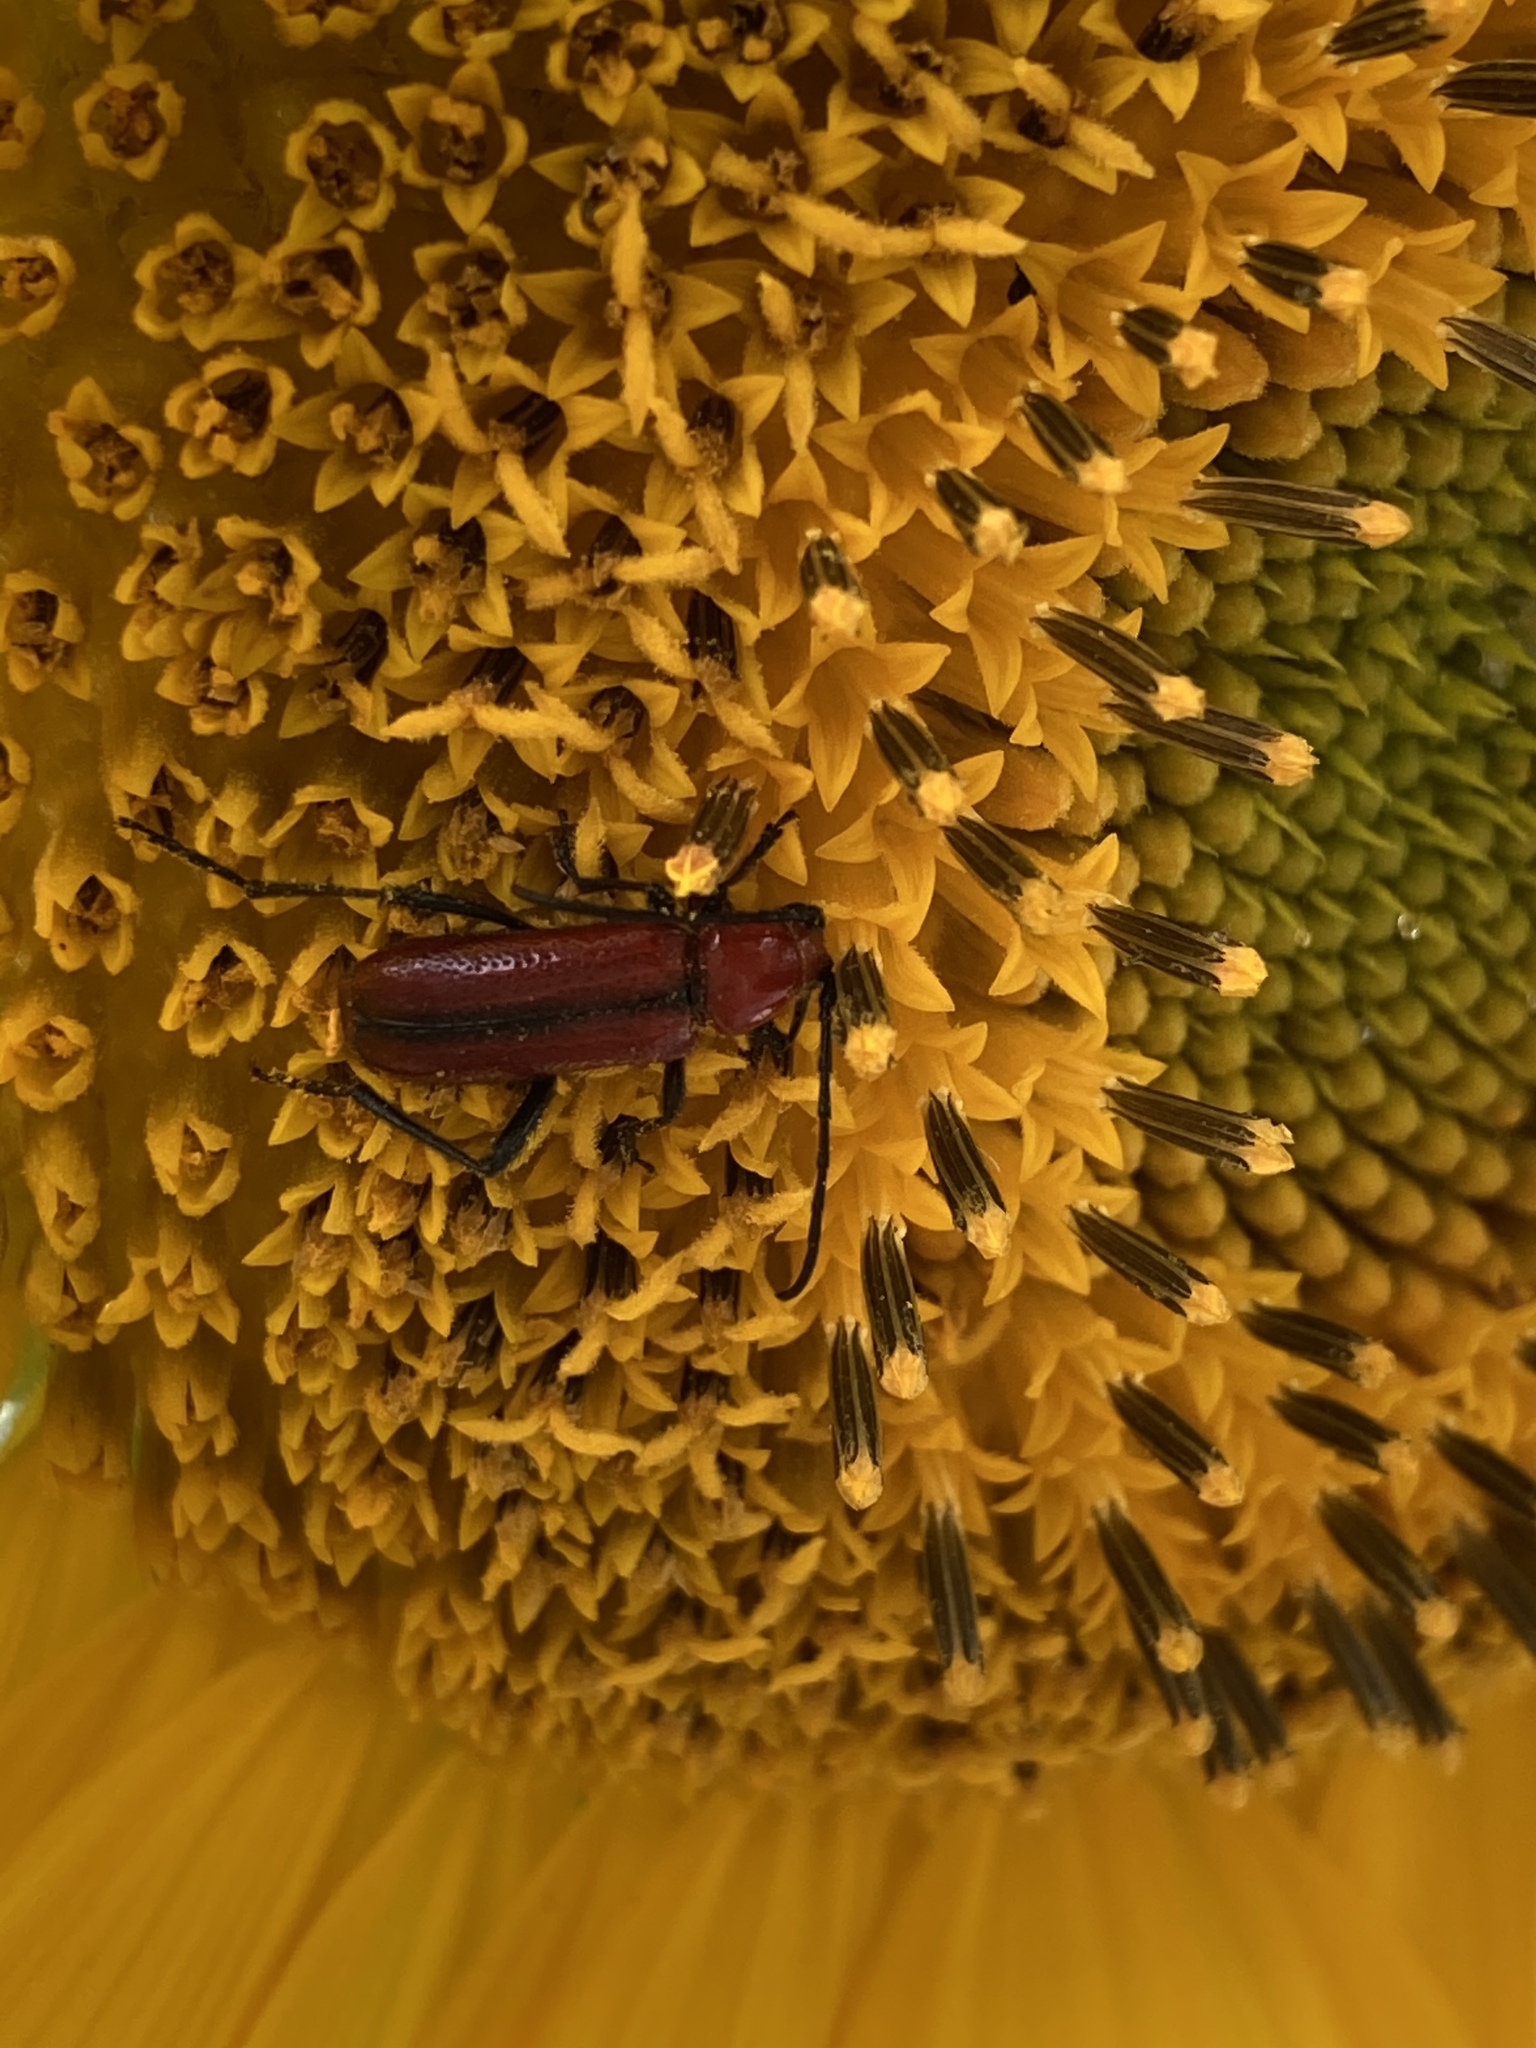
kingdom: Animalia
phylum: Arthropoda
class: Insecta
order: Coleoptera
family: Cerambycidae
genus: Batyle
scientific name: Batyle suturalis
